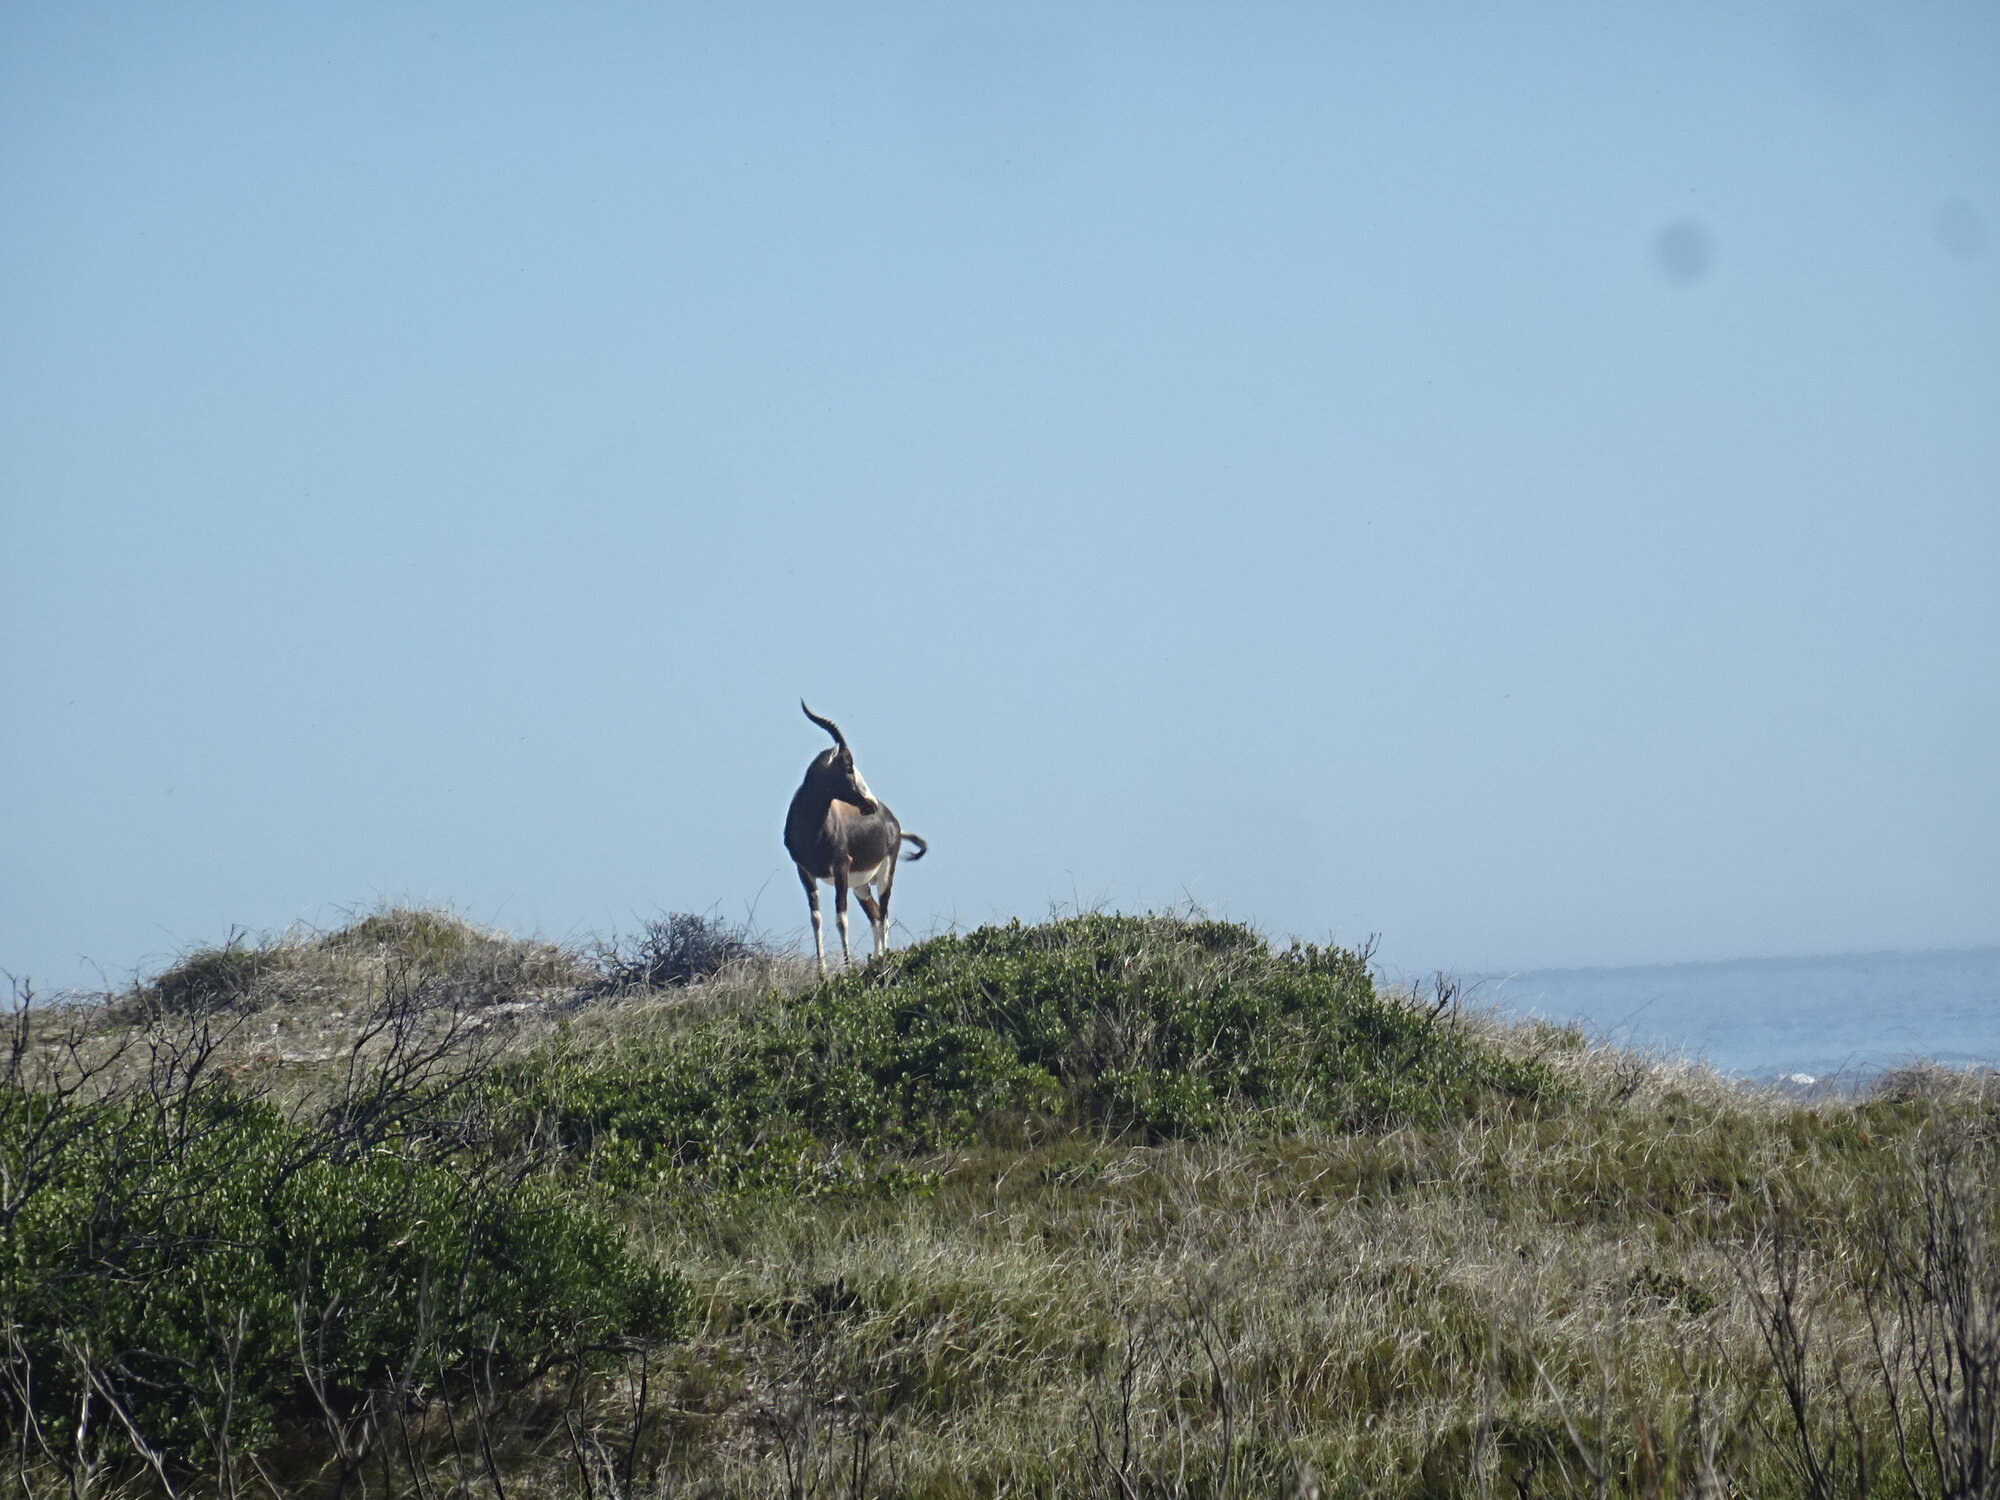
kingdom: Animalia
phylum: Chordata
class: Mammalia
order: Artiodactyla
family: Bovidae
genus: Damaliscus
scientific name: Damaliscus pygargus
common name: Bontebok
